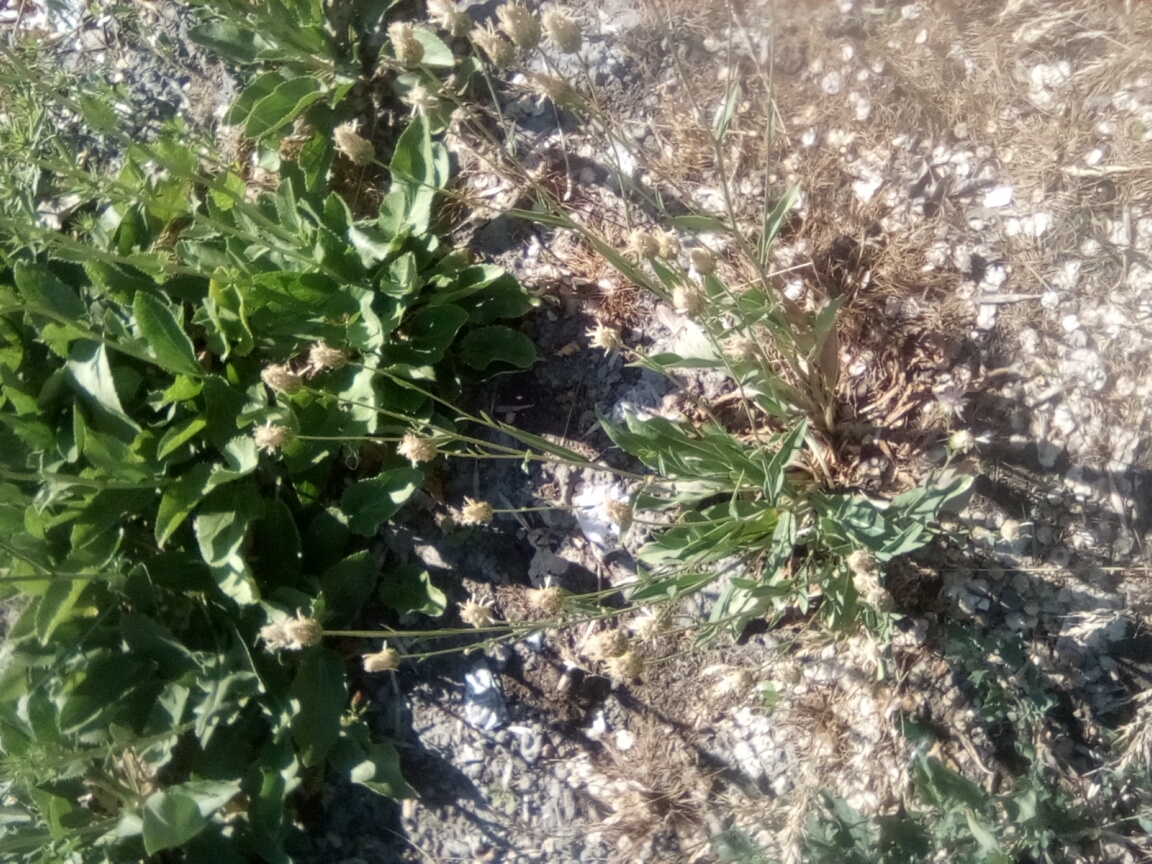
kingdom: Plantae
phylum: Tracheophyta
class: Magnoliopsida
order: Lamiales
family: Plantaginaceae
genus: Plantago
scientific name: Plantago lanceolata
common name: Ribwort plantain
